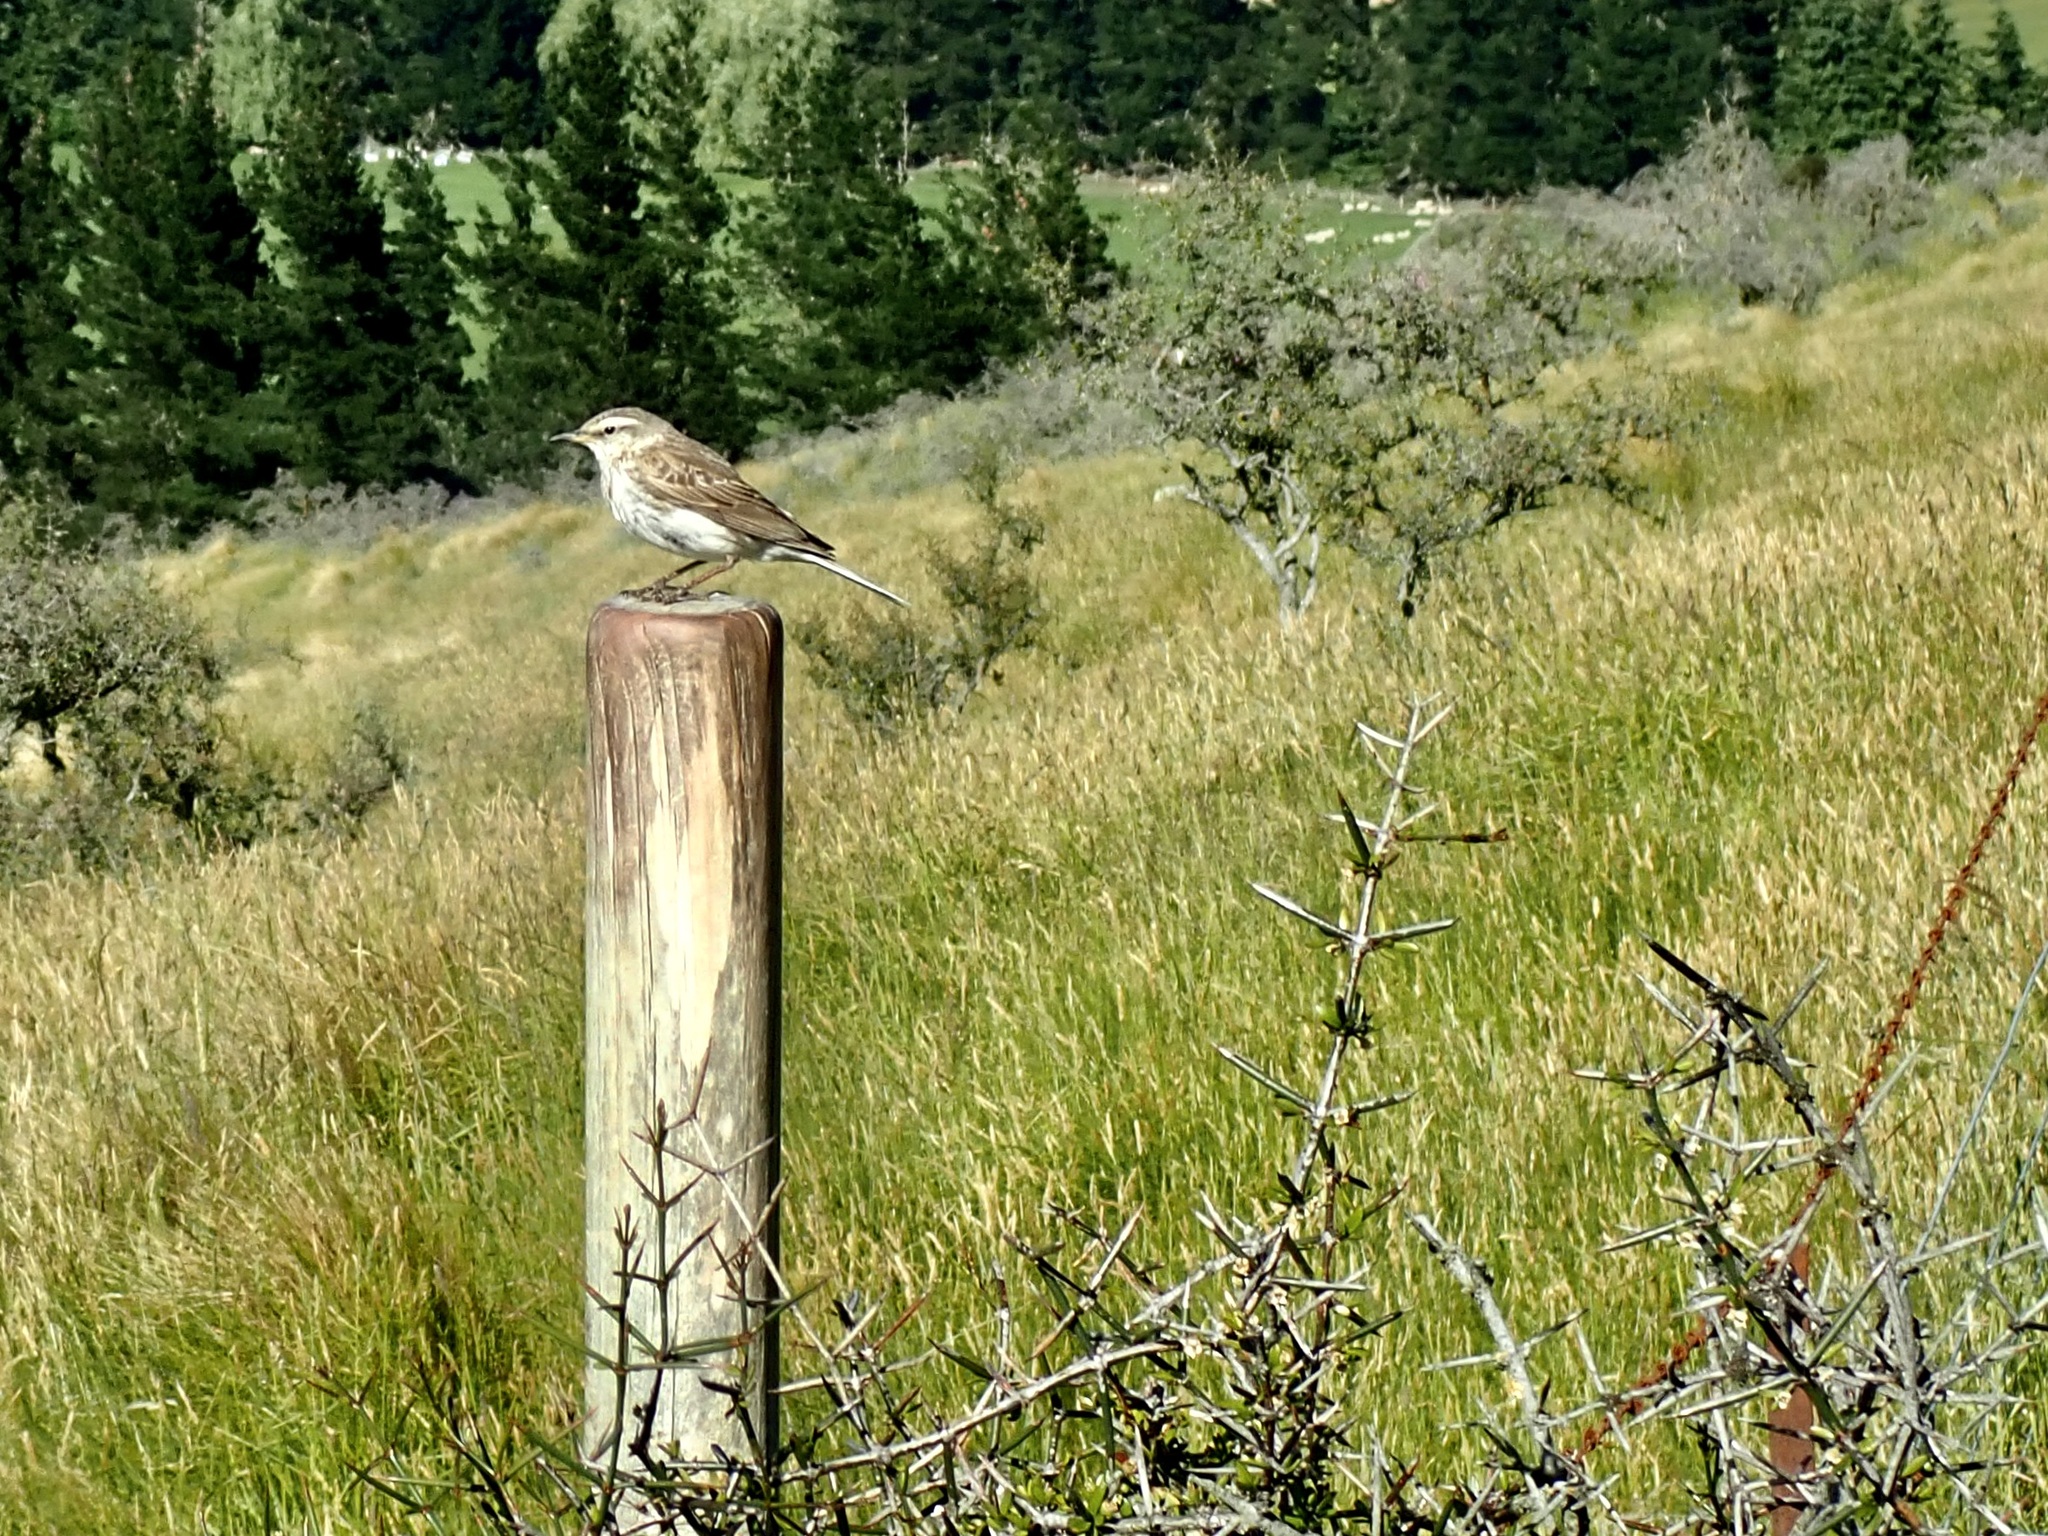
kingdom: Animalia
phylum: Chordata
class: Aves
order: Passeriformes
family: Motacillidae
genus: Anthus
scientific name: Anthus novaeseelandiae
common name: New zealand pipit
